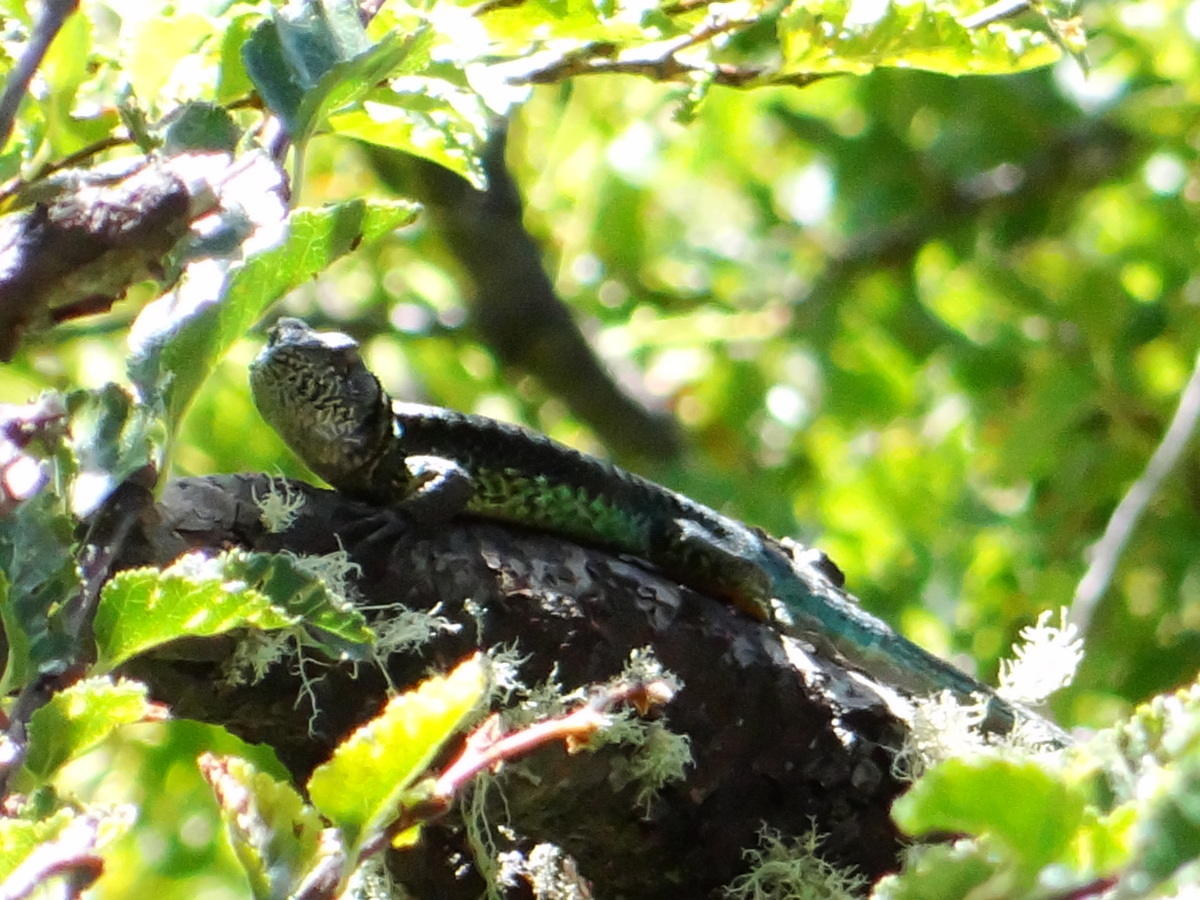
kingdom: Animalia
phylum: Chordata
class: Squamata
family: Liolaemidae
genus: Liolaemus
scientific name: Liolaemus tenuis
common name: Thin tree iguana
